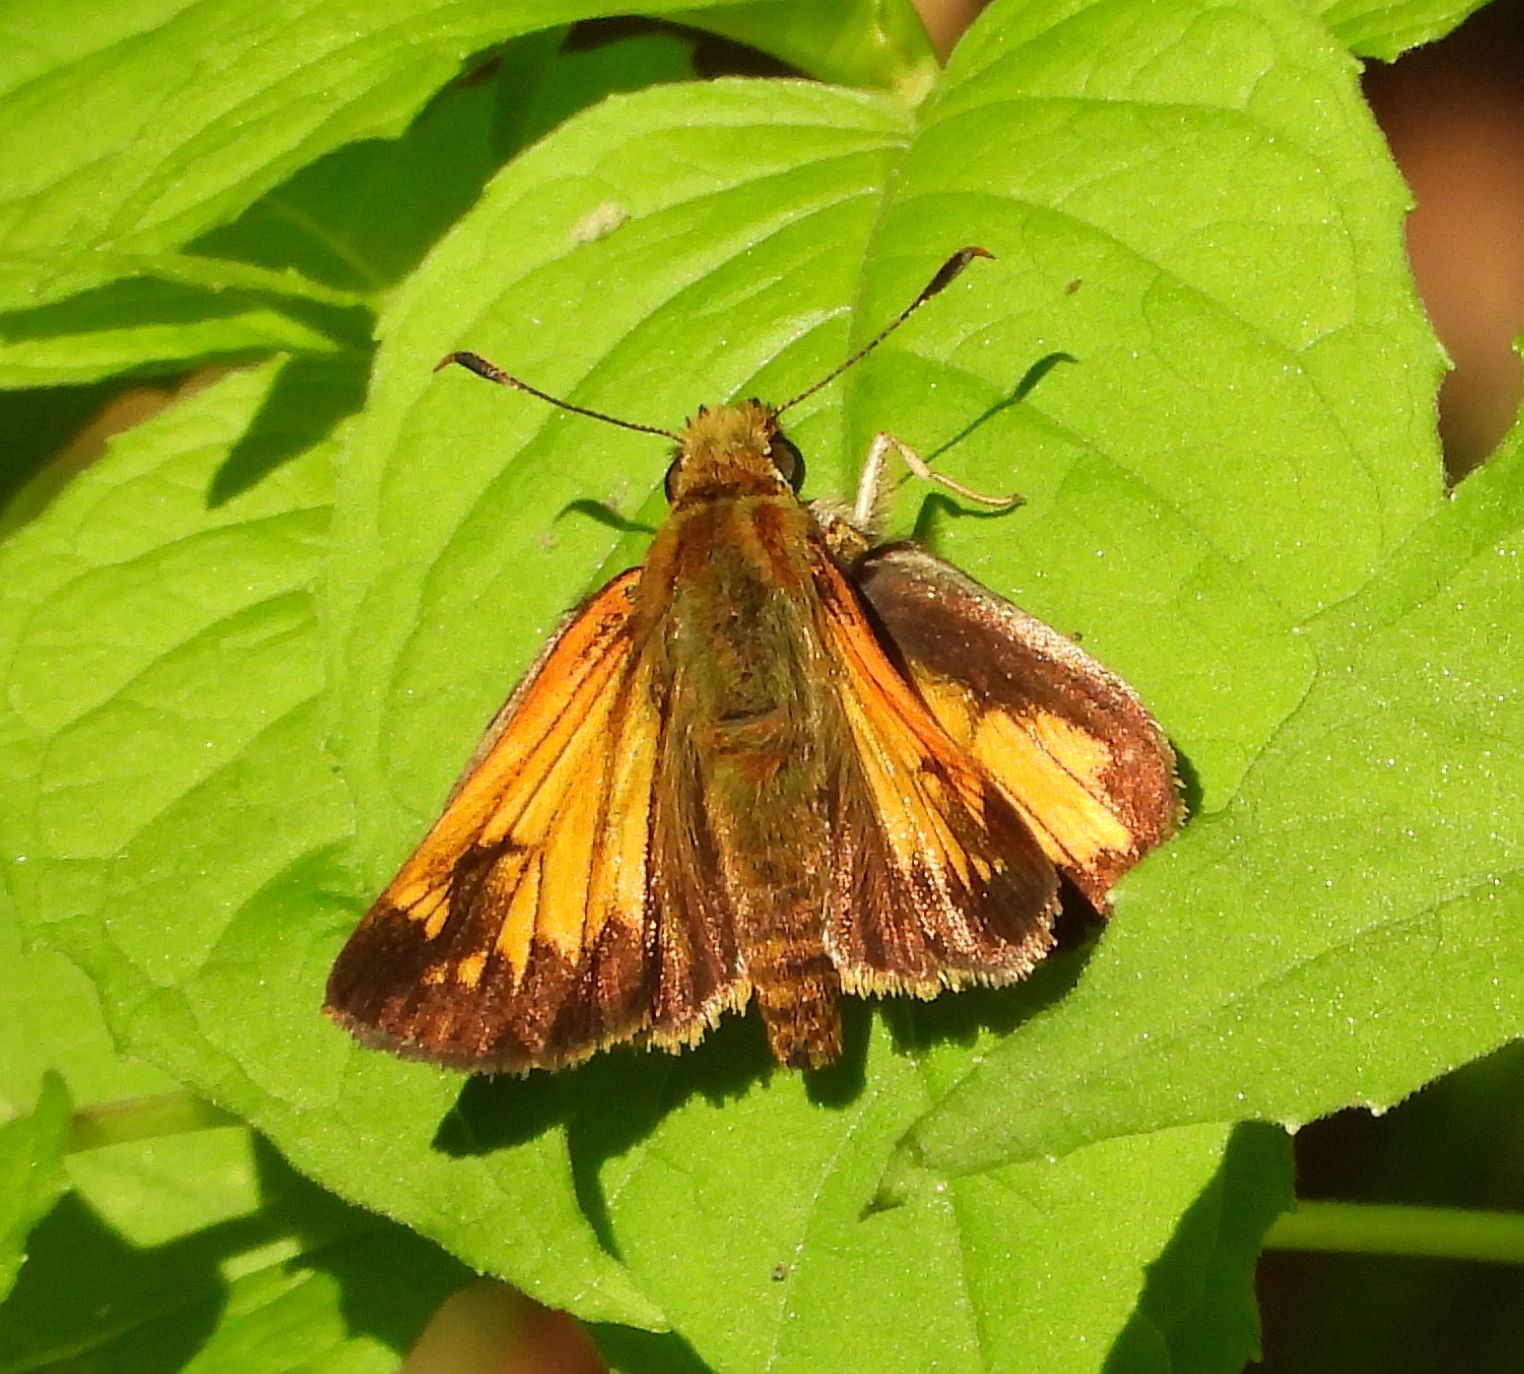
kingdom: Animalia
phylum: Arthropoda
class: Insecta
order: Lepidoptera
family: Hesperiidae
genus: Lon
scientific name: Lon hobomok
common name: Hobomok skipper
